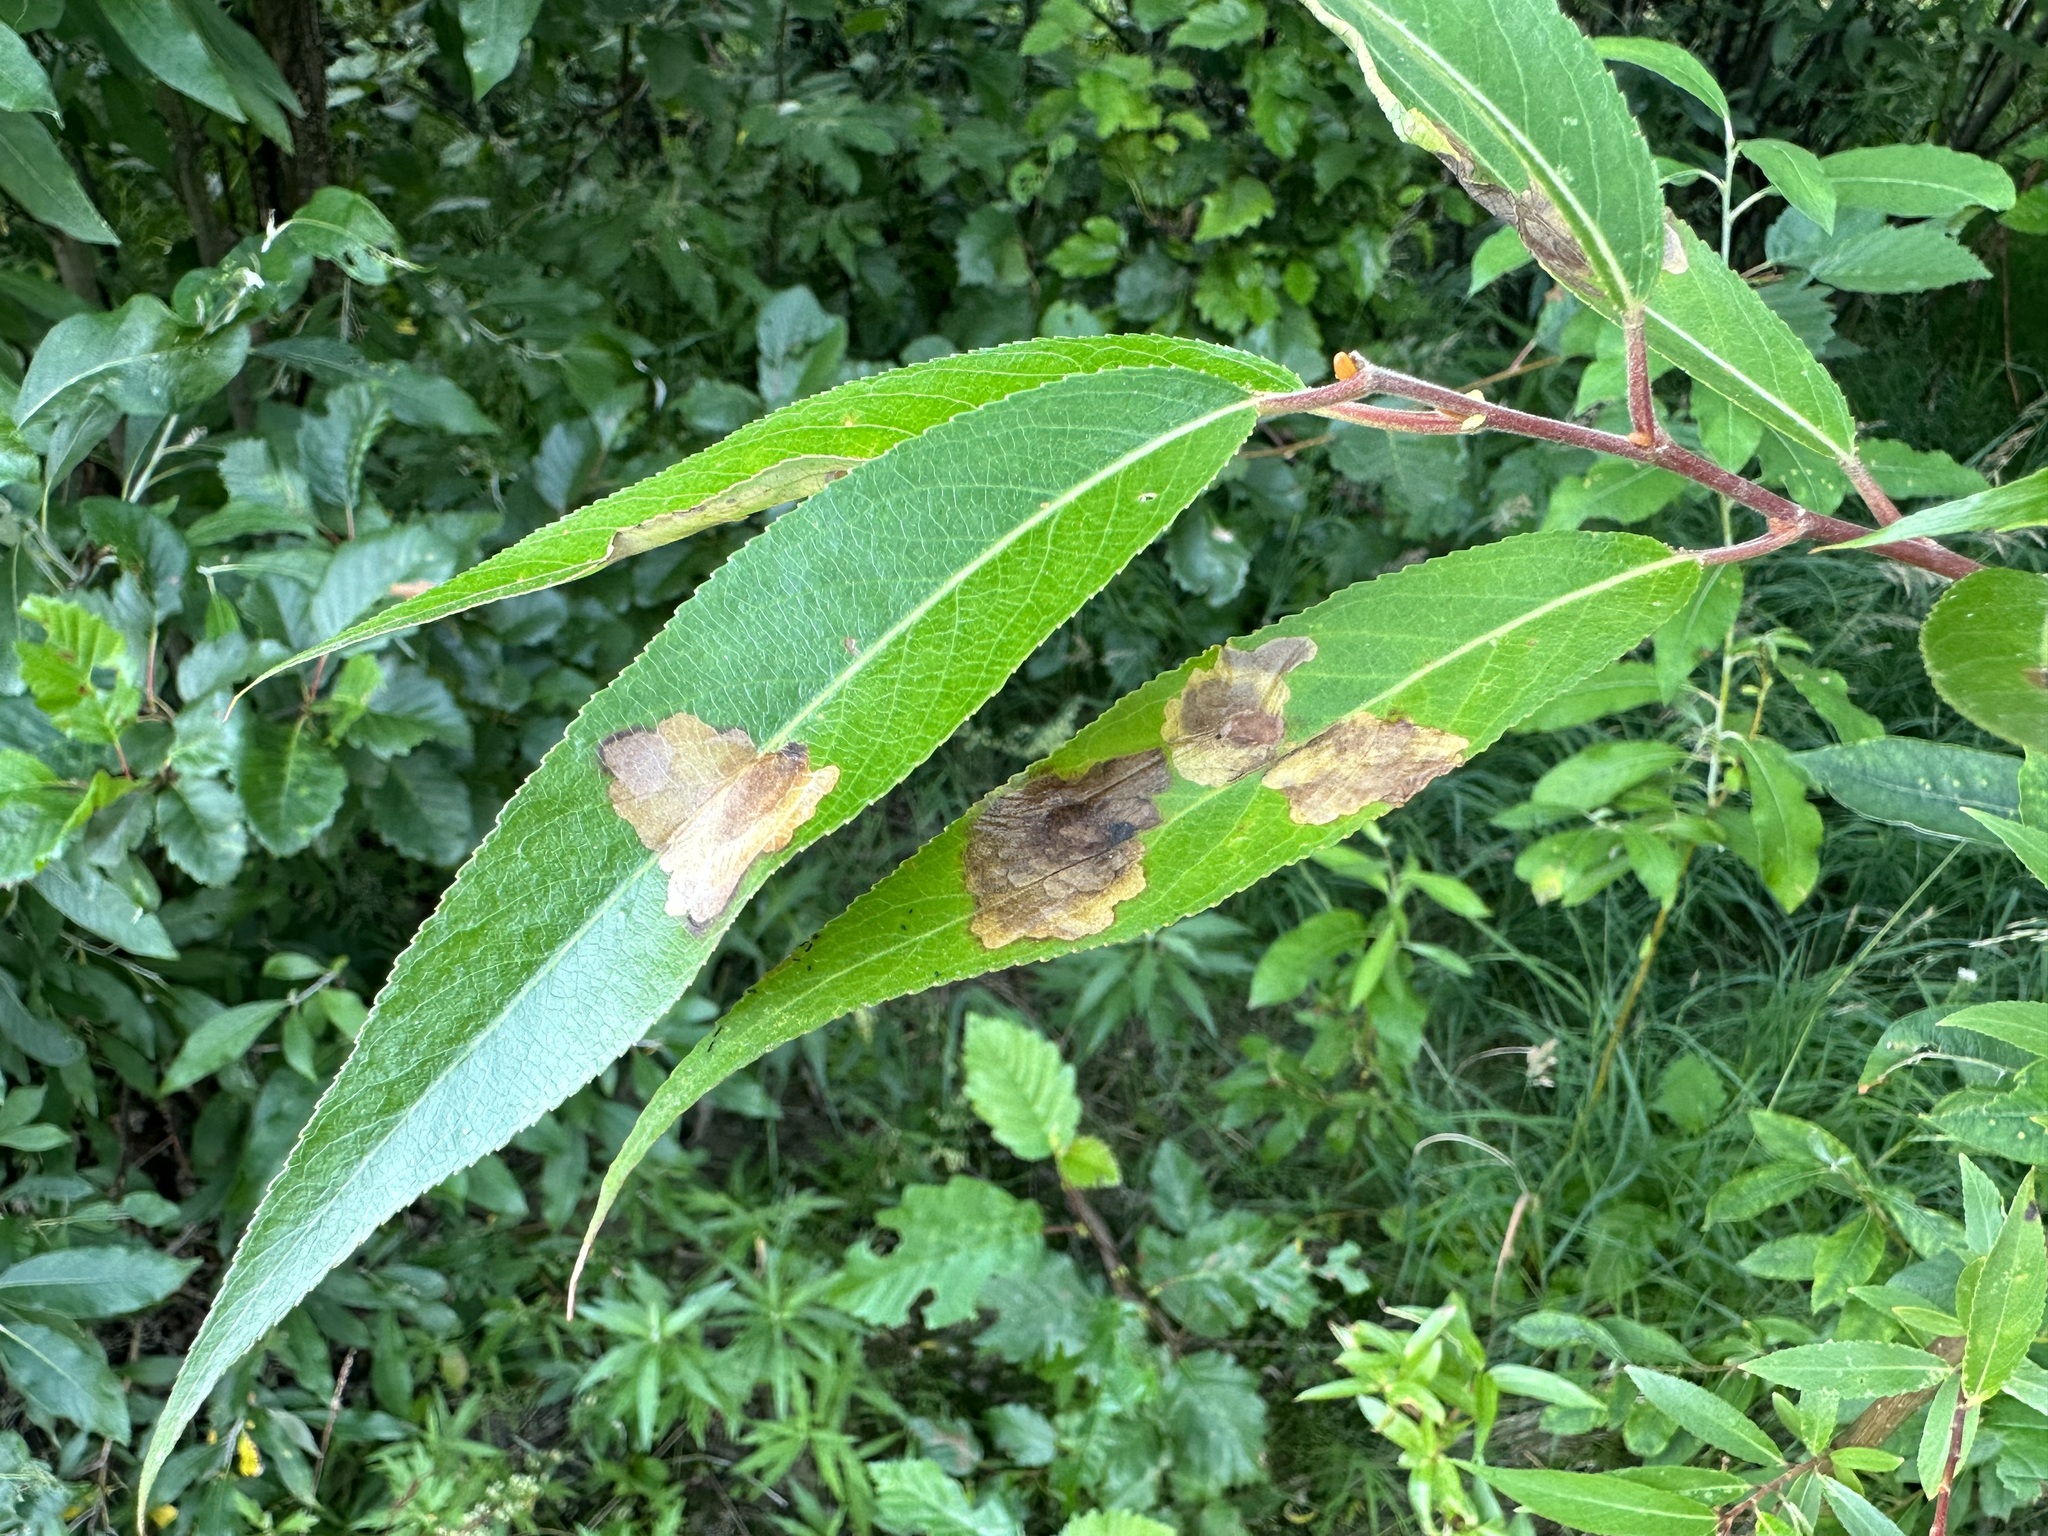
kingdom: Animalia
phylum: Arthropoda
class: Insecta
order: Lepidoptera
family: Gracillariidae
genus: Micrurapteryx
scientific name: Micrurapteryx salicifoliella
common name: Willow leaf blotch miner moth
